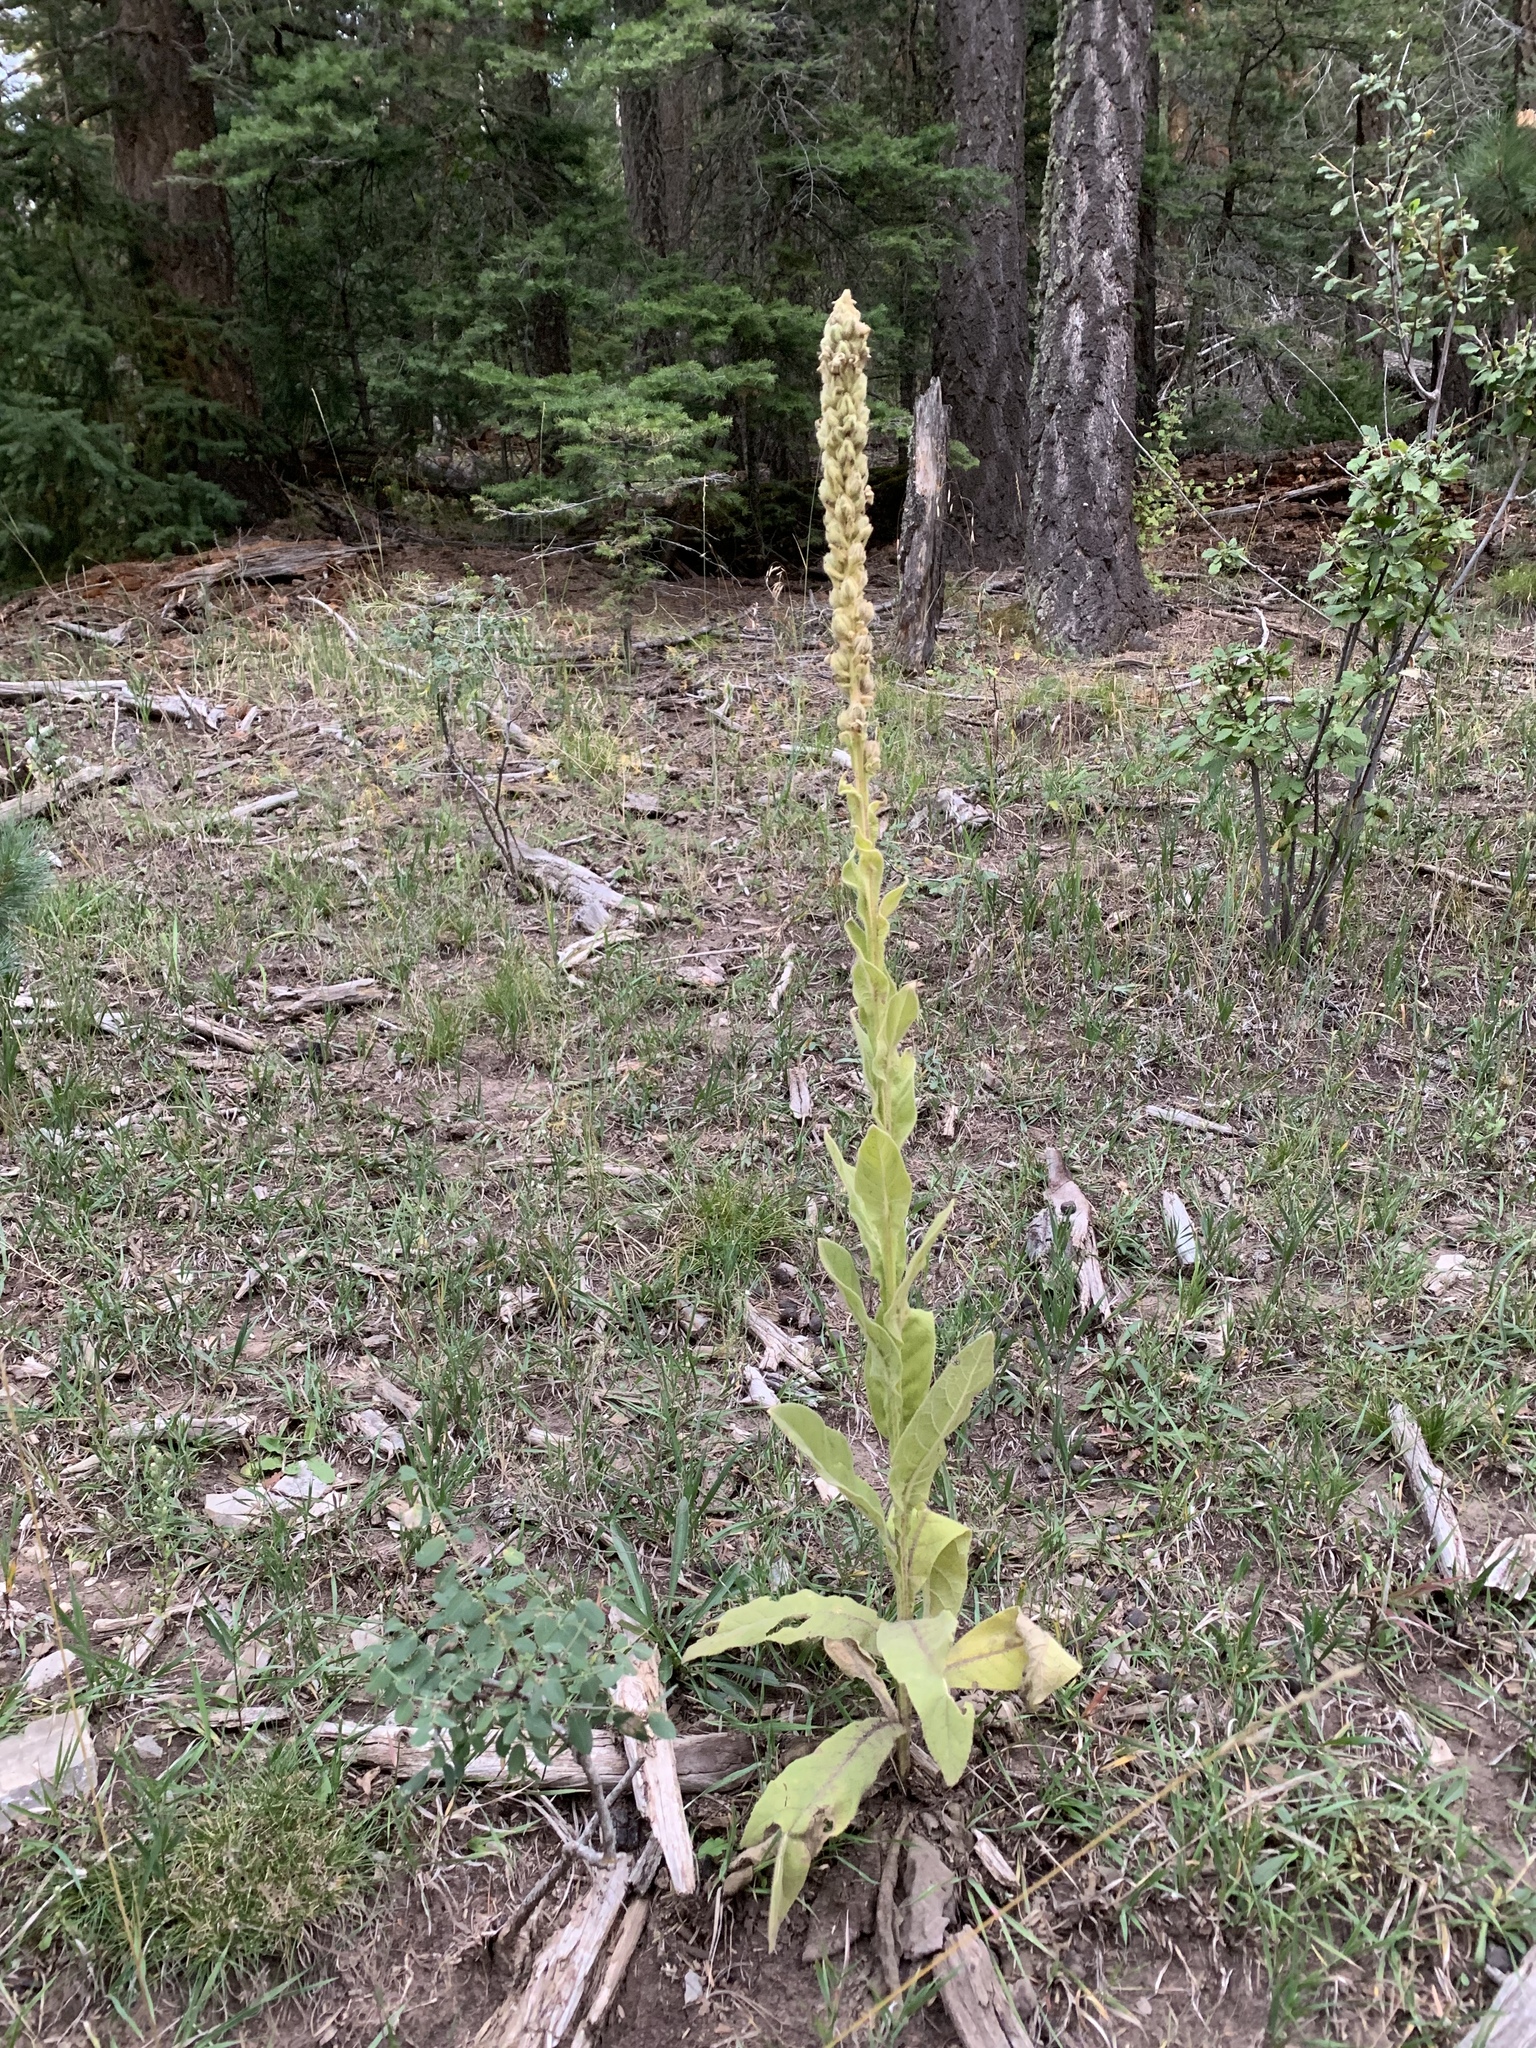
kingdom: Plantae
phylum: Tracheophyta
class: Magnoliopsida
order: Lamiales
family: Scrophulariaceae
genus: Verbascum
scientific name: Verbascum thapsus
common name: Common mullein
